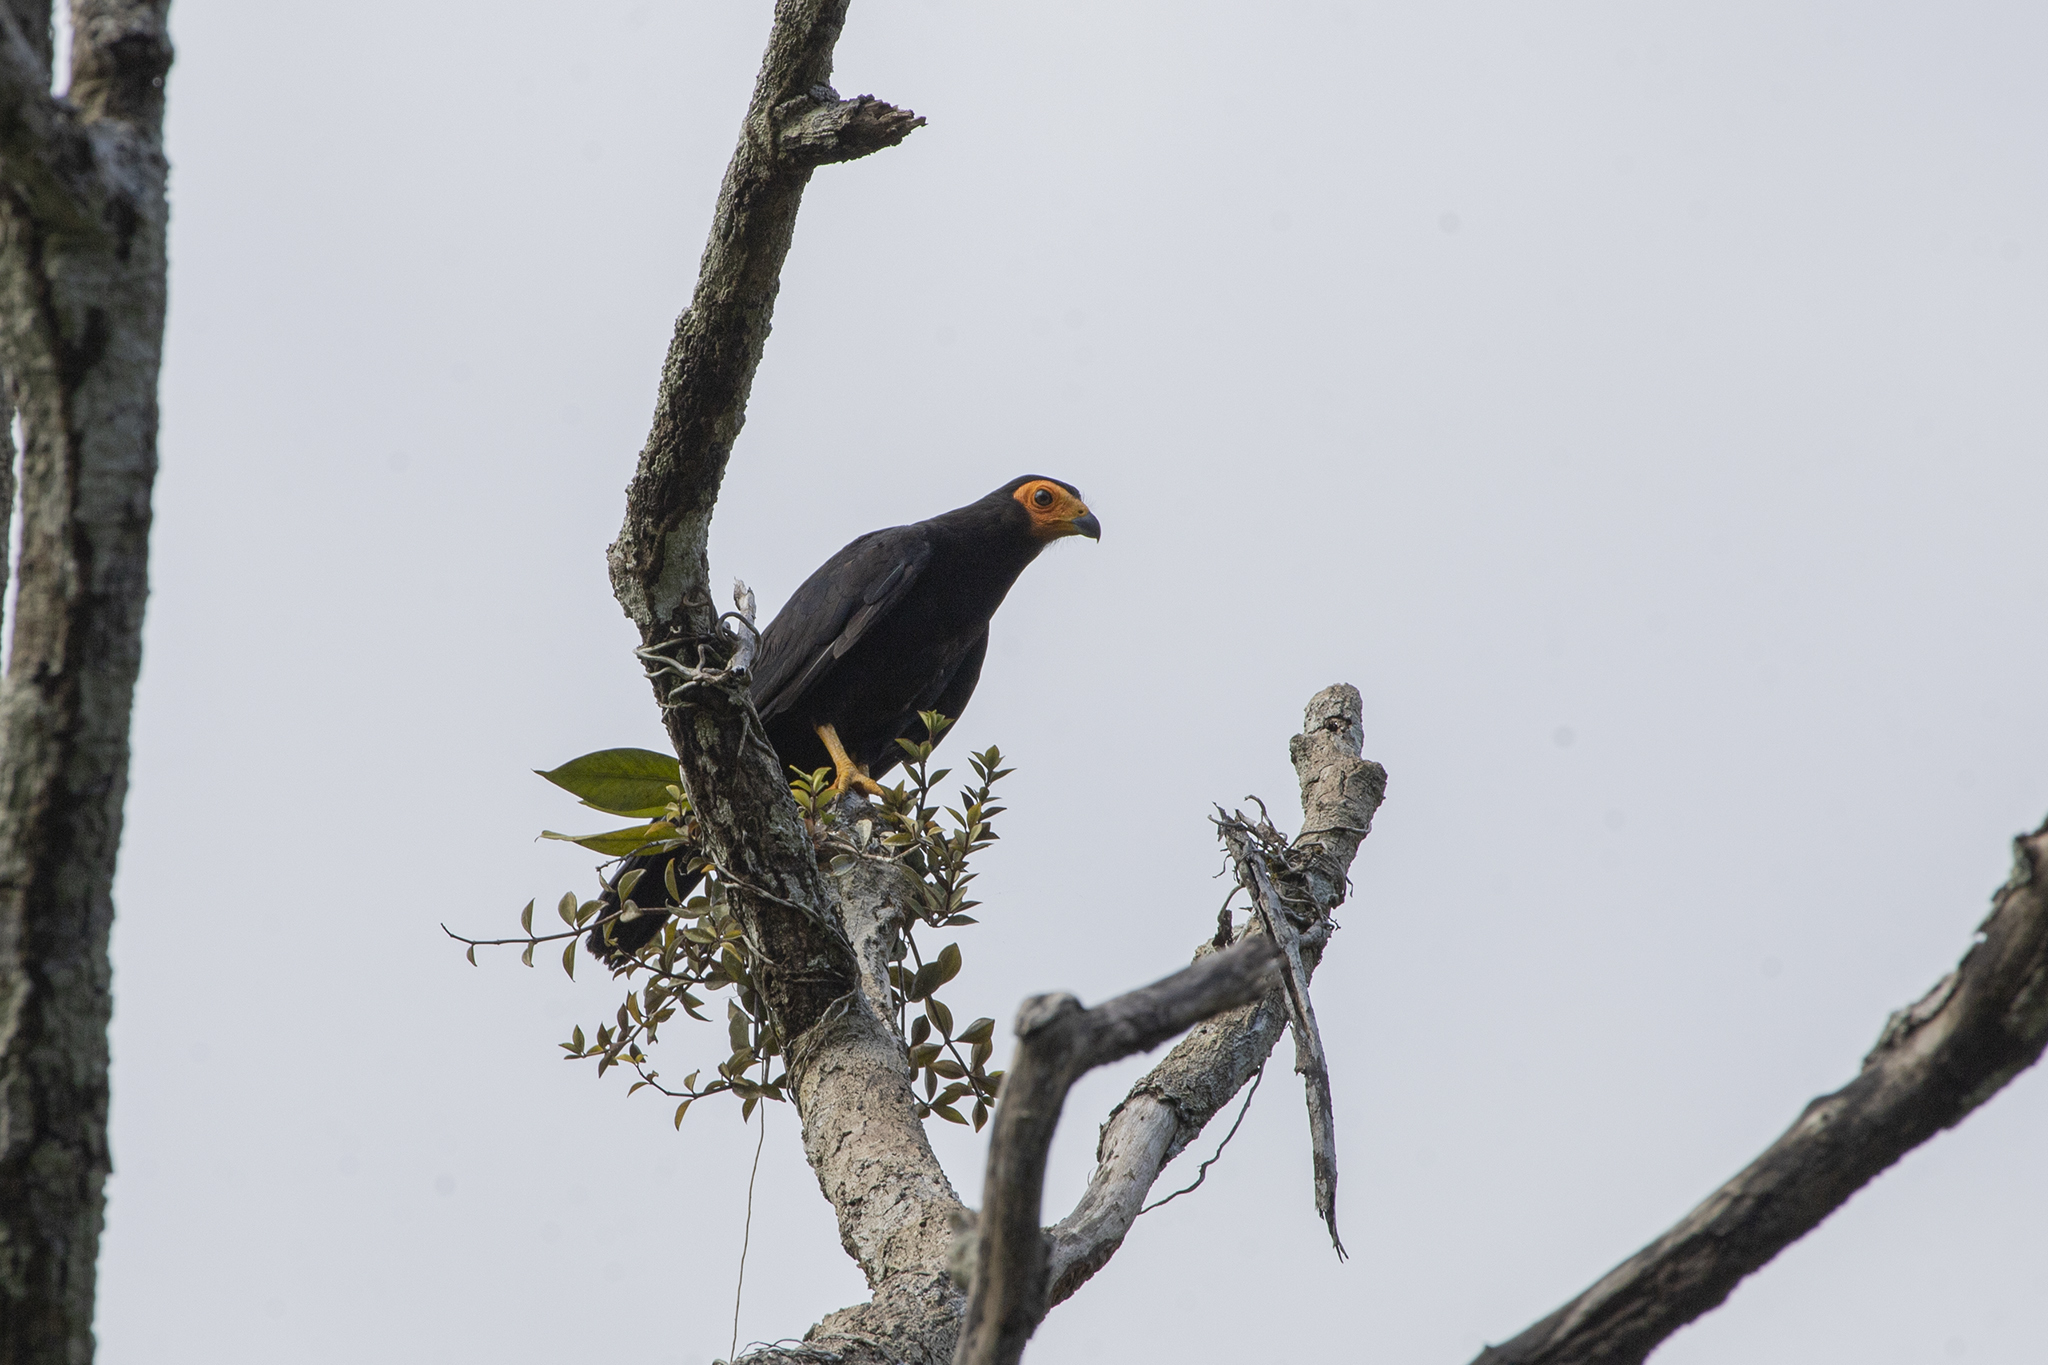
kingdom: Animalia
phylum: Chordata
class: Aves
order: Falconiformes
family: Falconidae
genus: Daptrius
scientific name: Daptrius ater
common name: Black caracara
